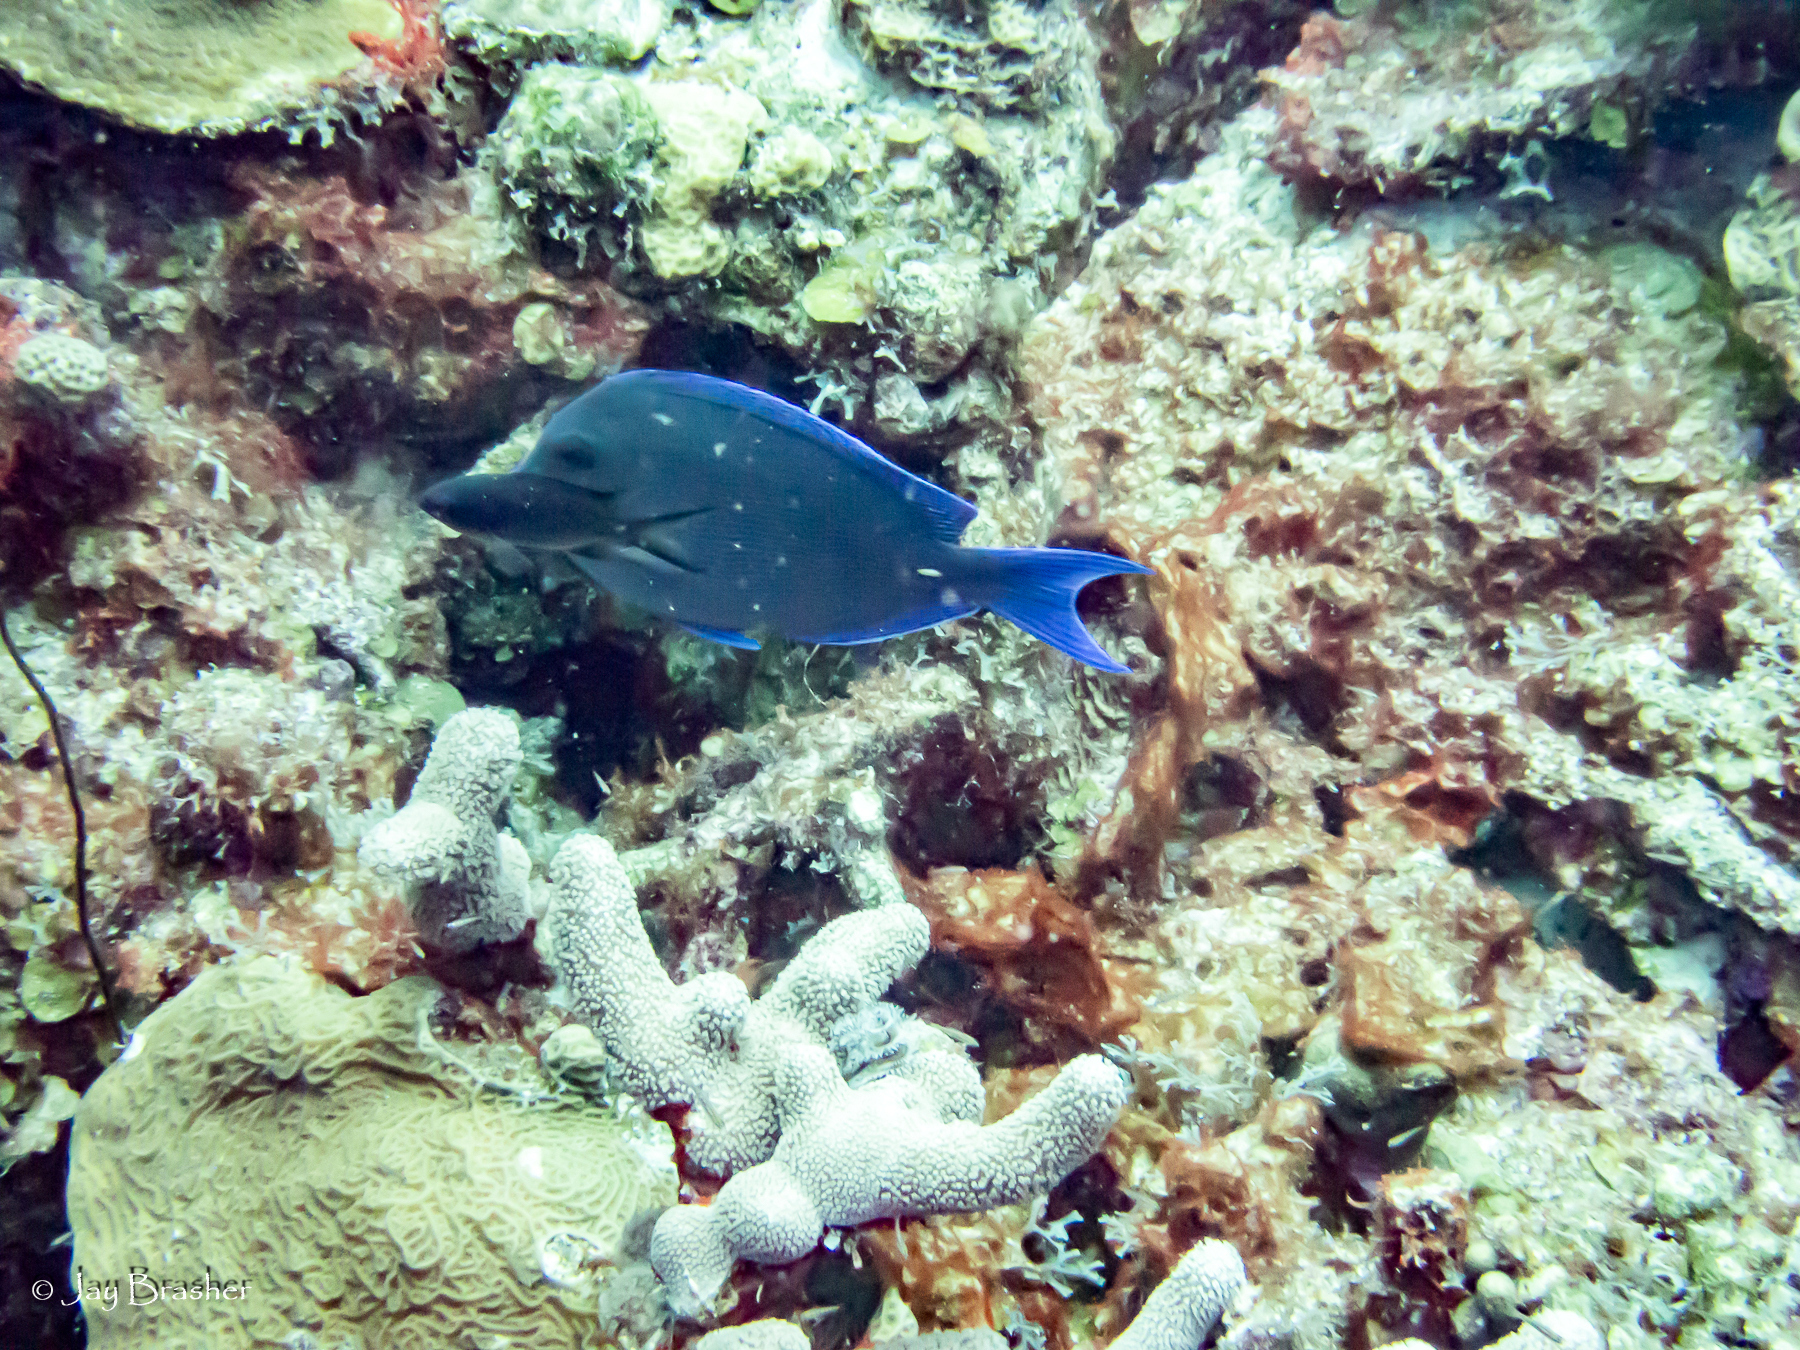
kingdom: Animalia
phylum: Chordata
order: Perciformes
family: Acanthuridae
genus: Acanthurus
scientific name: Acanthurus coeruleus
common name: Blue tang
